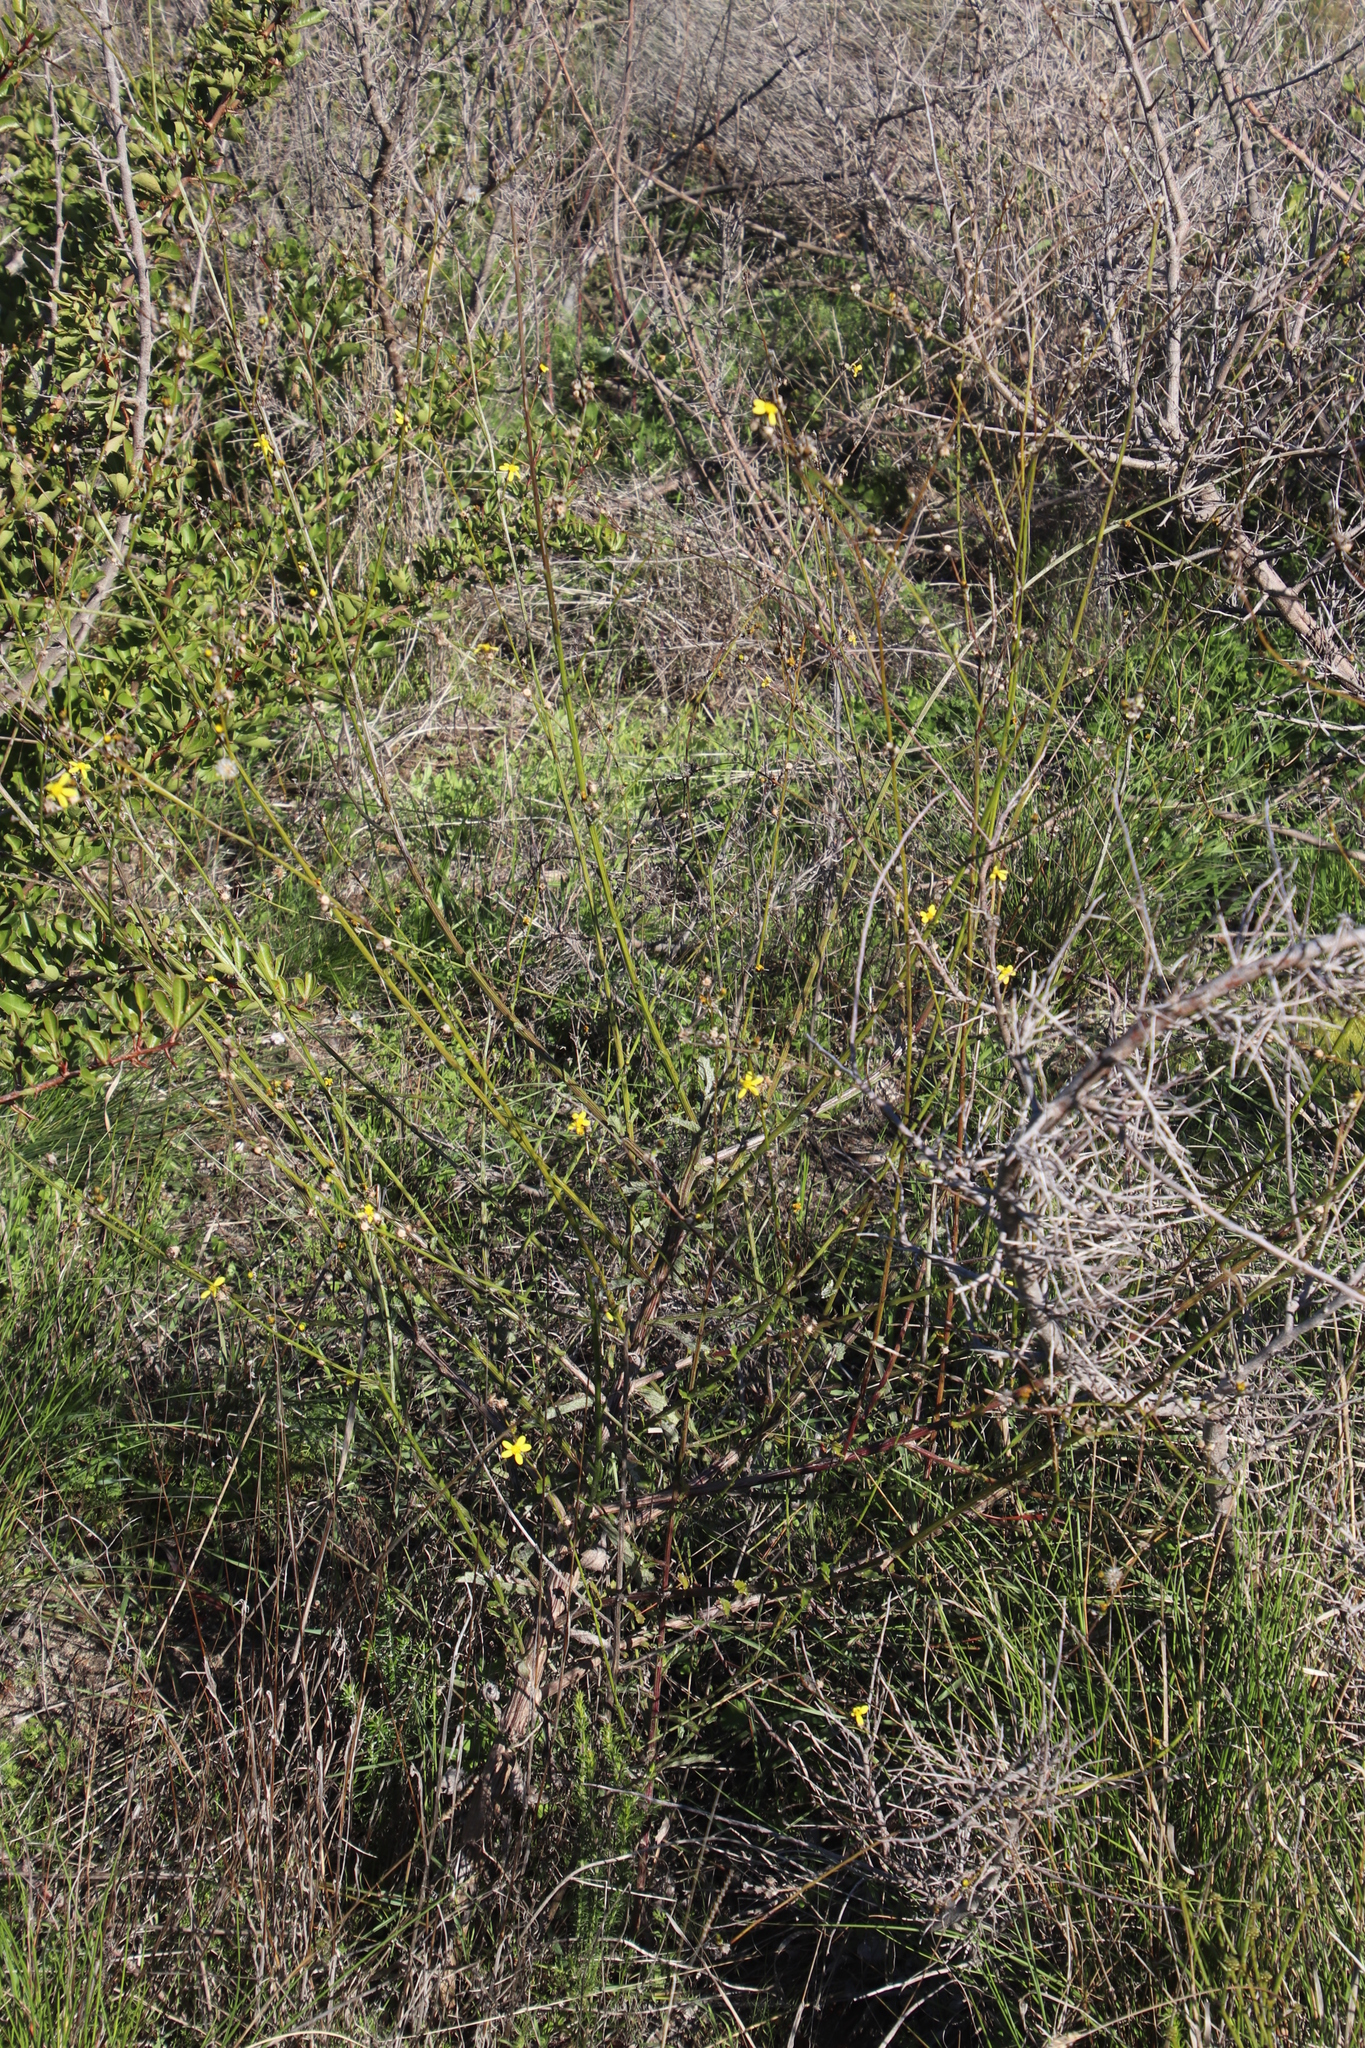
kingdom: Plantae
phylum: Tracheophyta
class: Magnoliopsida
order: Asterales
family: Asteraceae
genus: Senecio
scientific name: Senecio pubigerus
